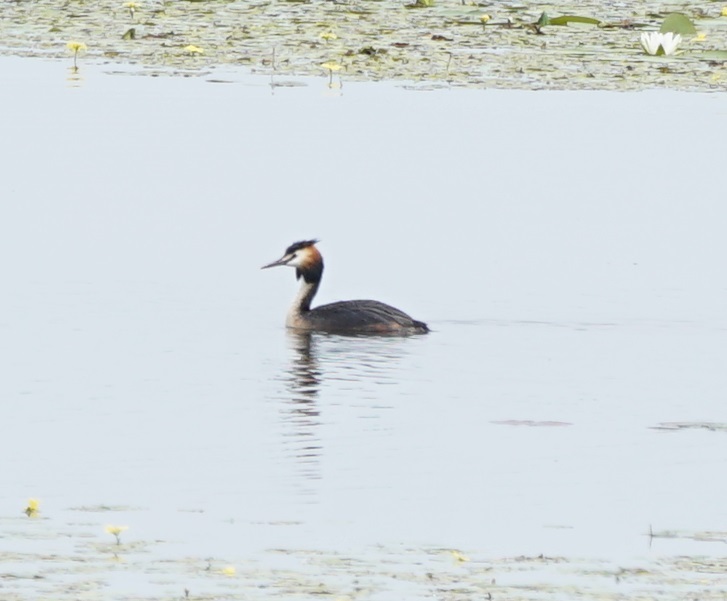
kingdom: Animalia
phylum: Chordata
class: Aves
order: Podicipediformes
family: Podicipedidae
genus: Podiceps
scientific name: Podiceps cristatus
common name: Great crested grebe
